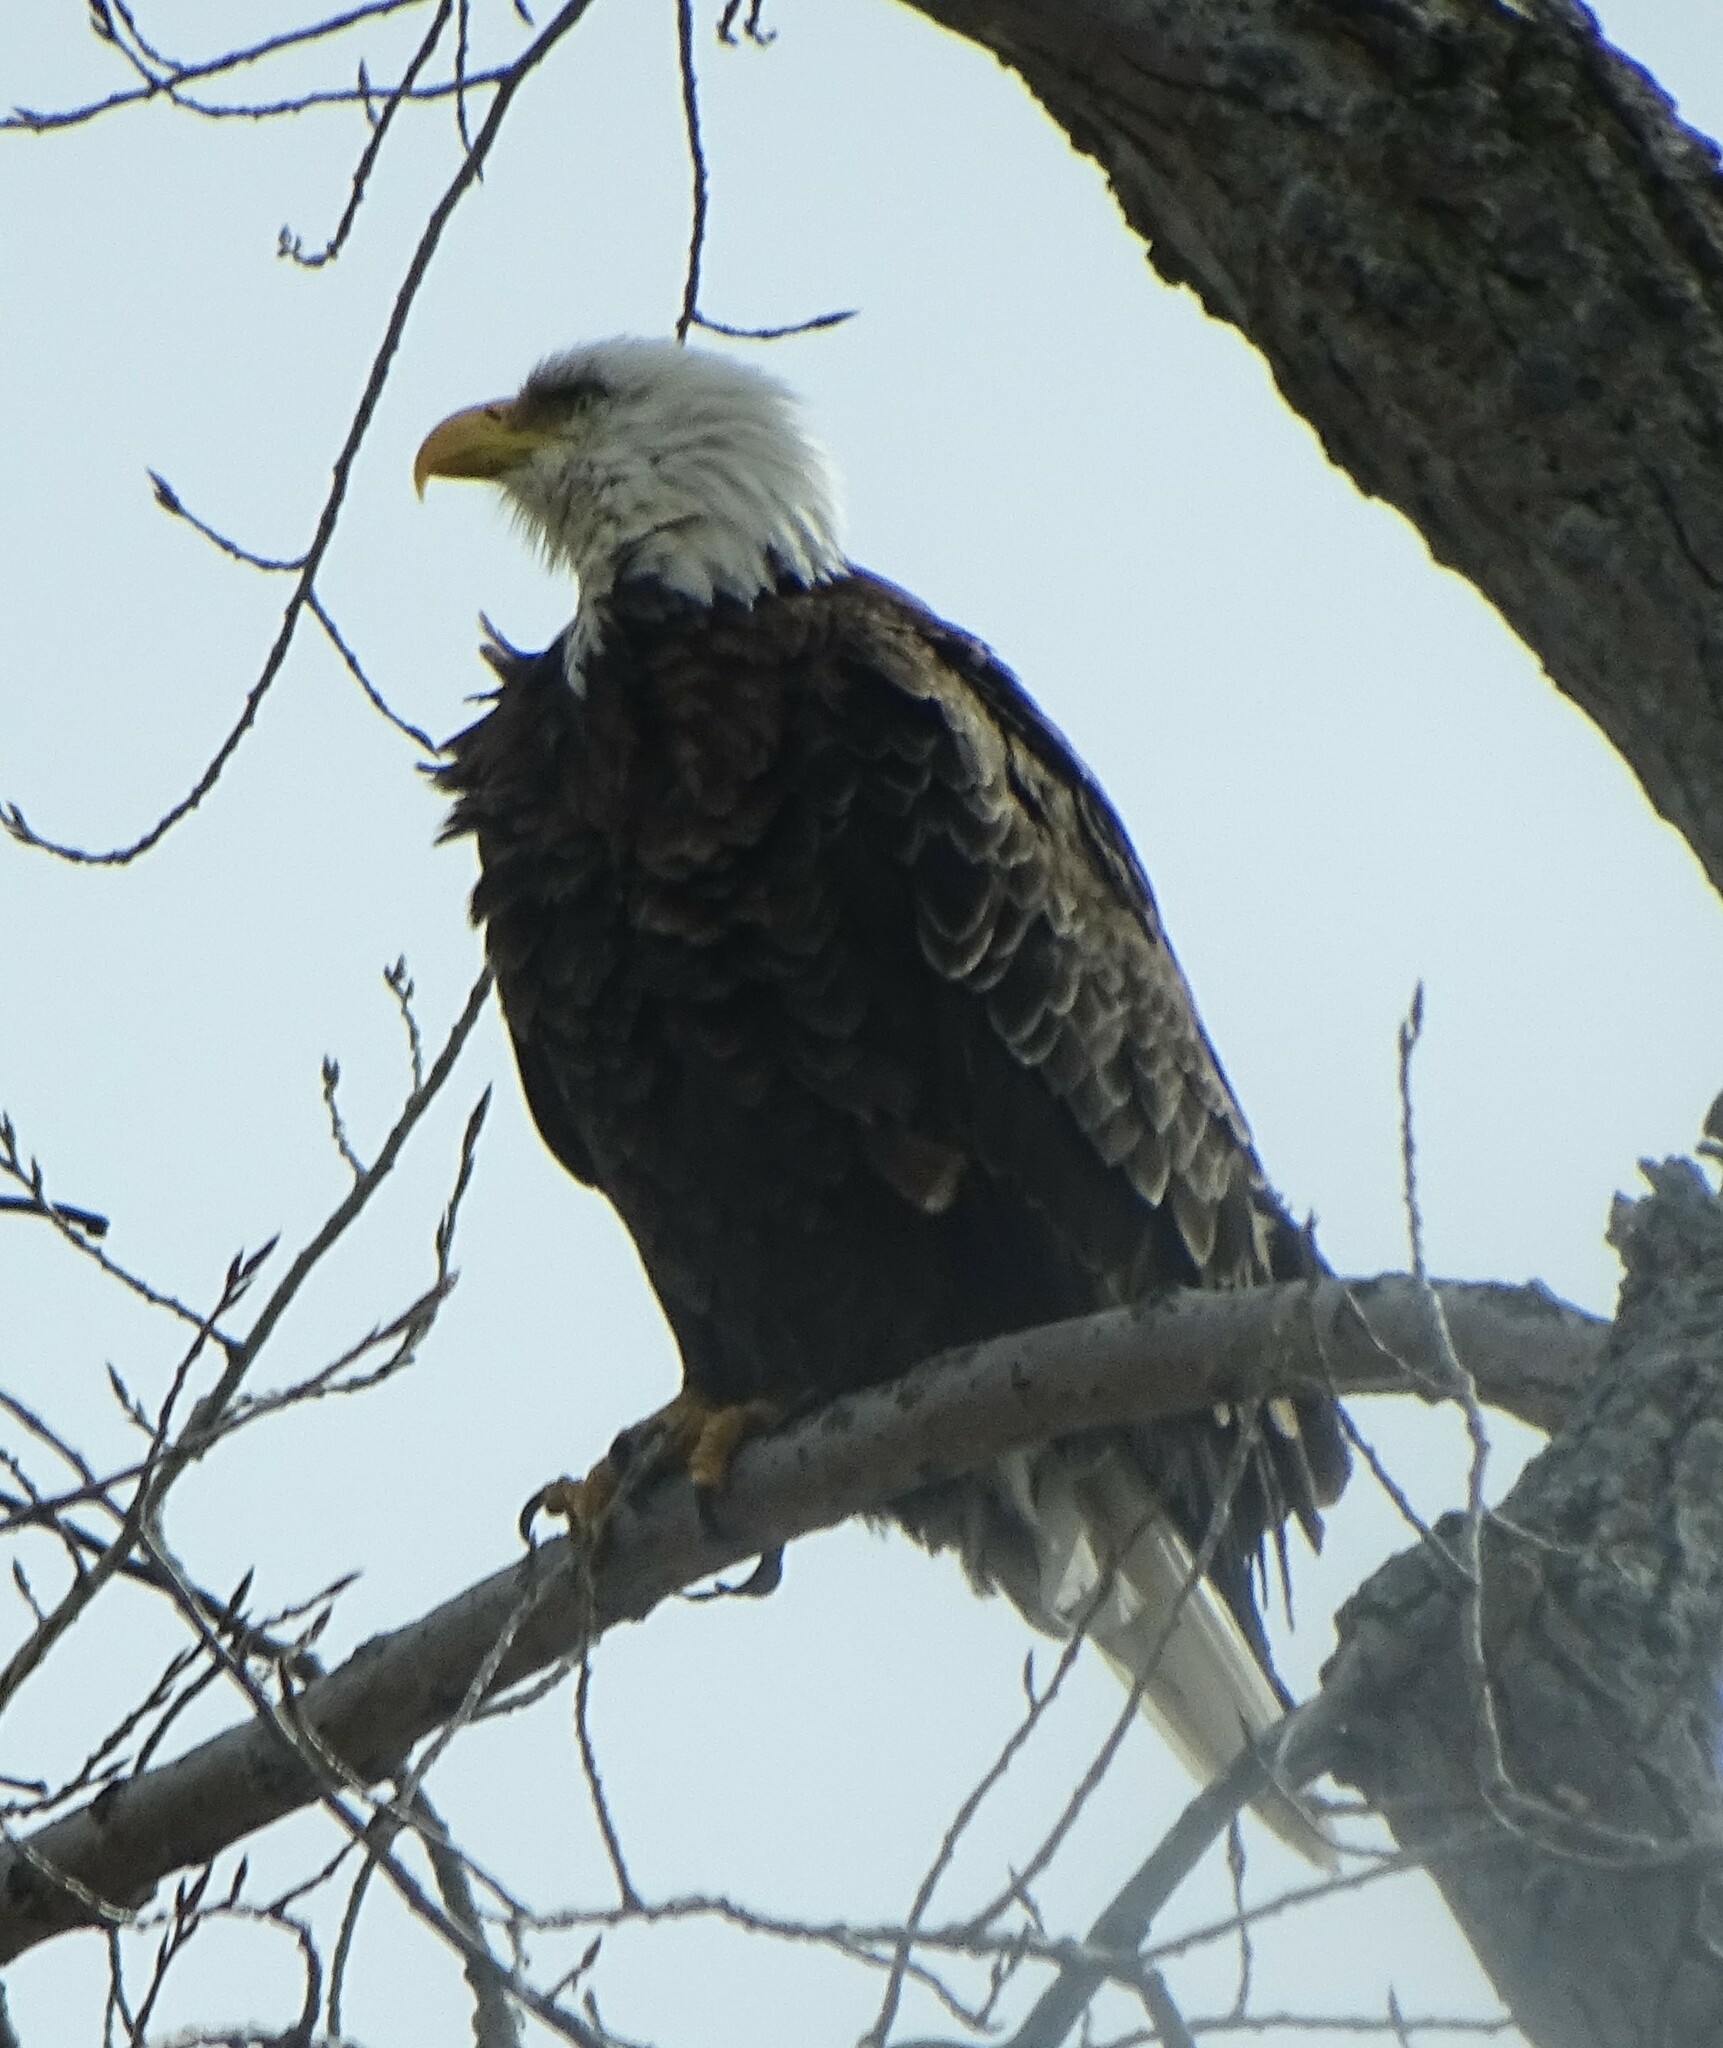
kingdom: Animalia
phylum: Chordata
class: Aves
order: Accipitriformes
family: Accipitridae
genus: Haliaeetus
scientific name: Haliaeetus leucocephalus
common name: Bald eagle
